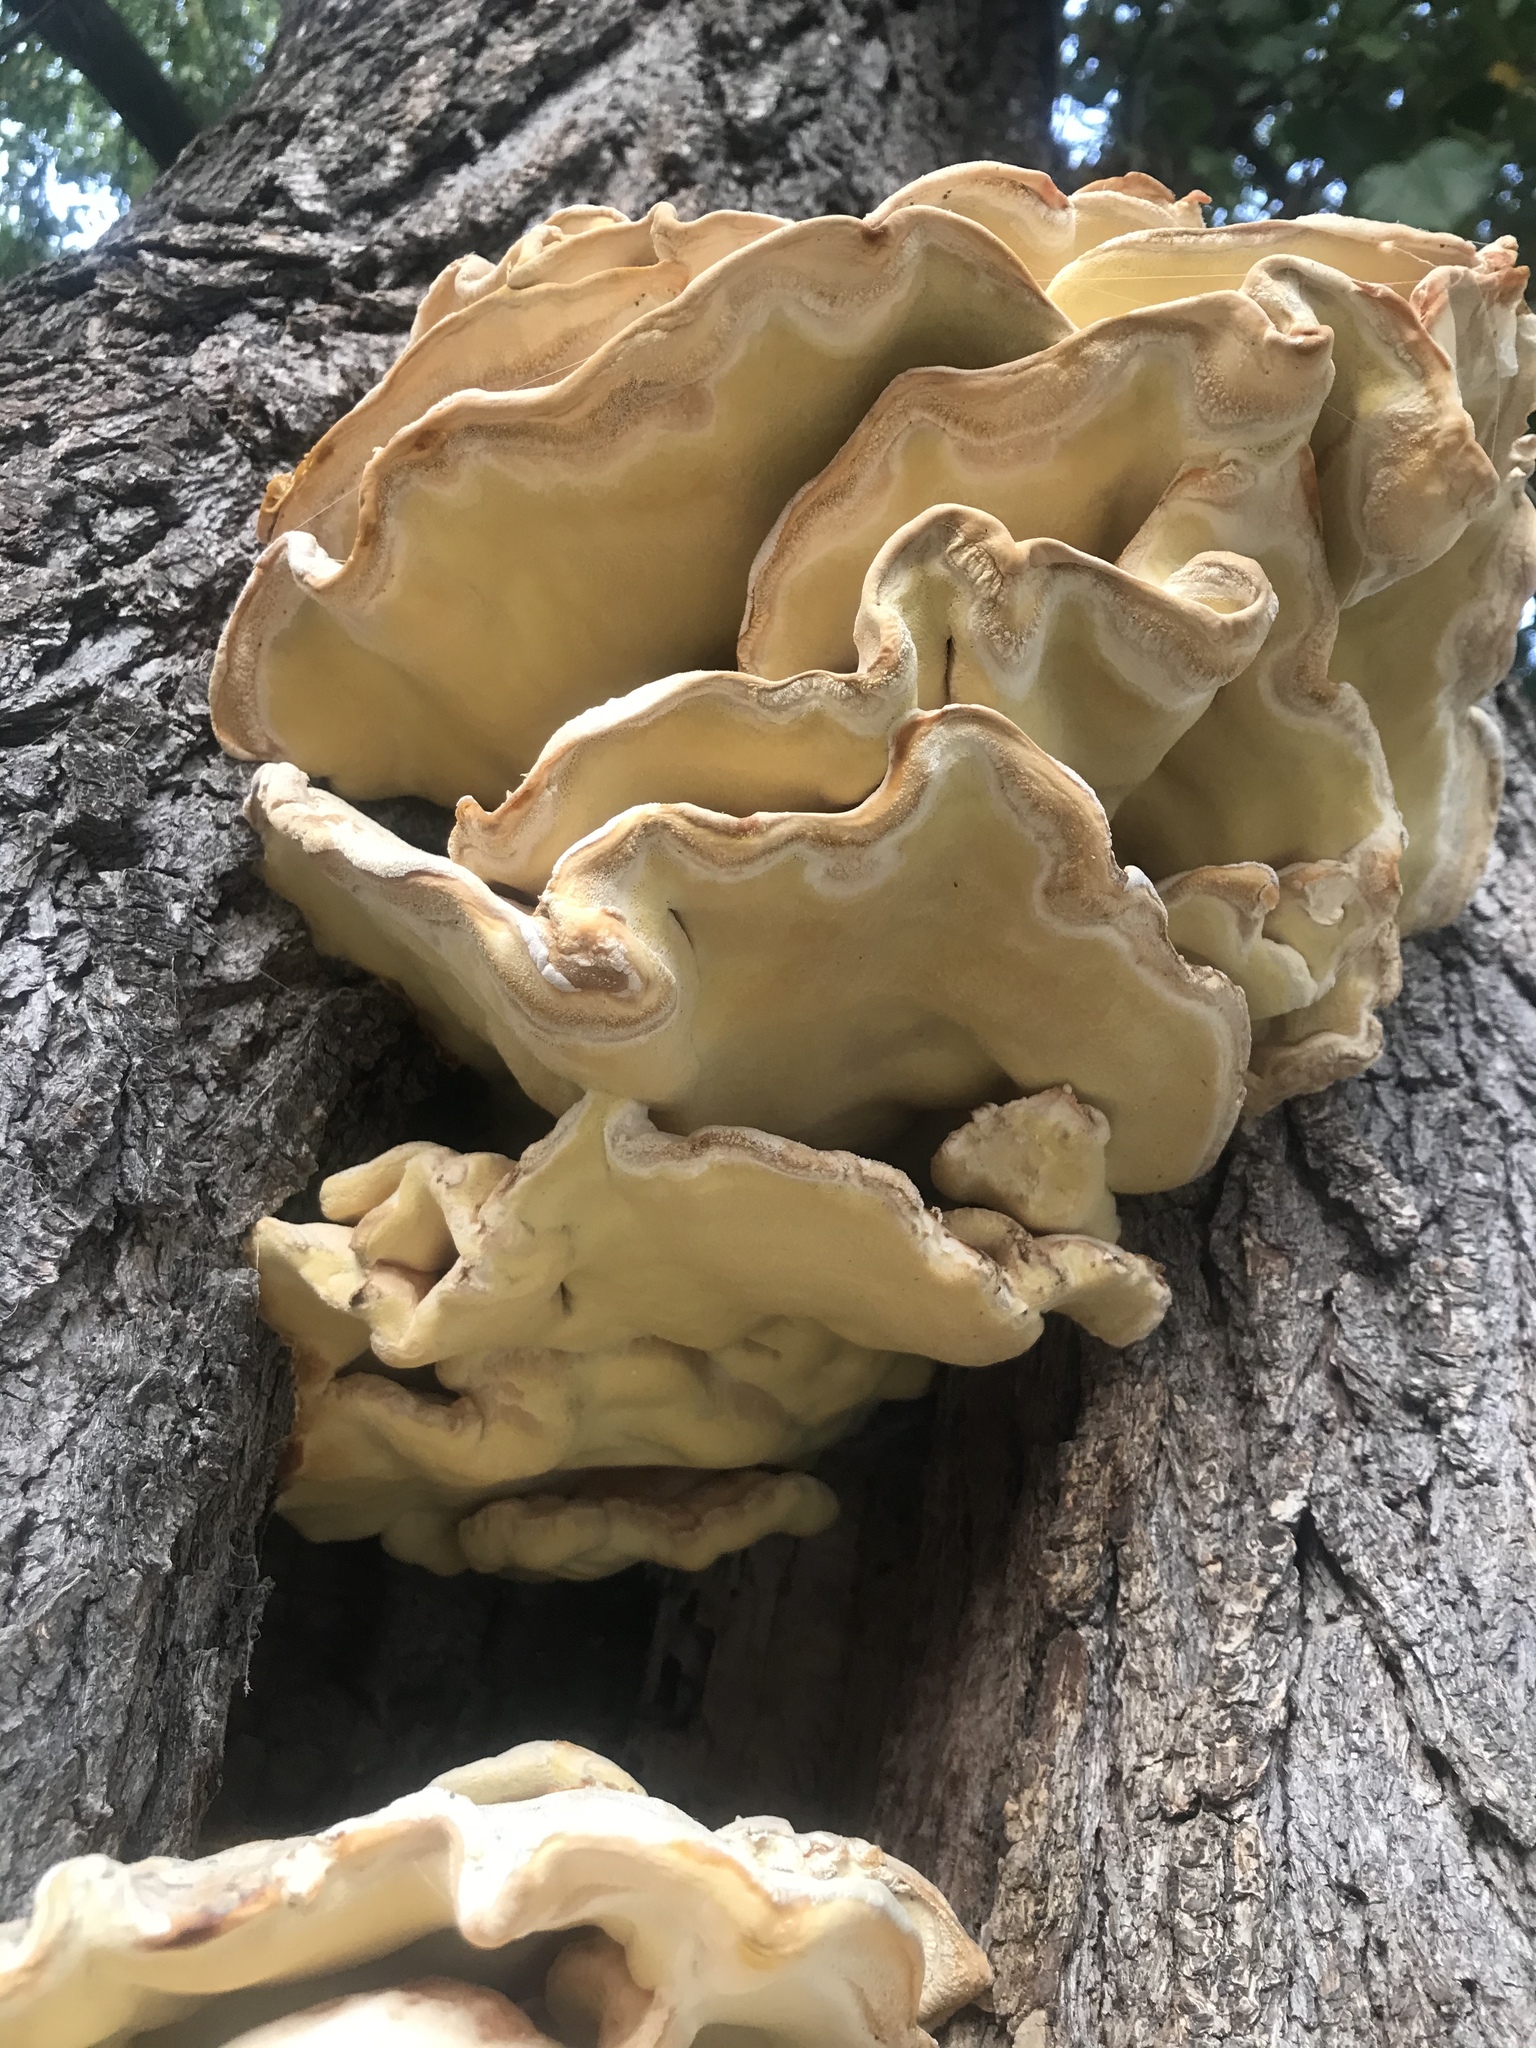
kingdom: Fungi
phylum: Basidiomycota
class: Agaricomycetes
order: Polyporales
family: Laetiporaceae
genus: Laetiporus
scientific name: Laetiporus gilbertsonii
